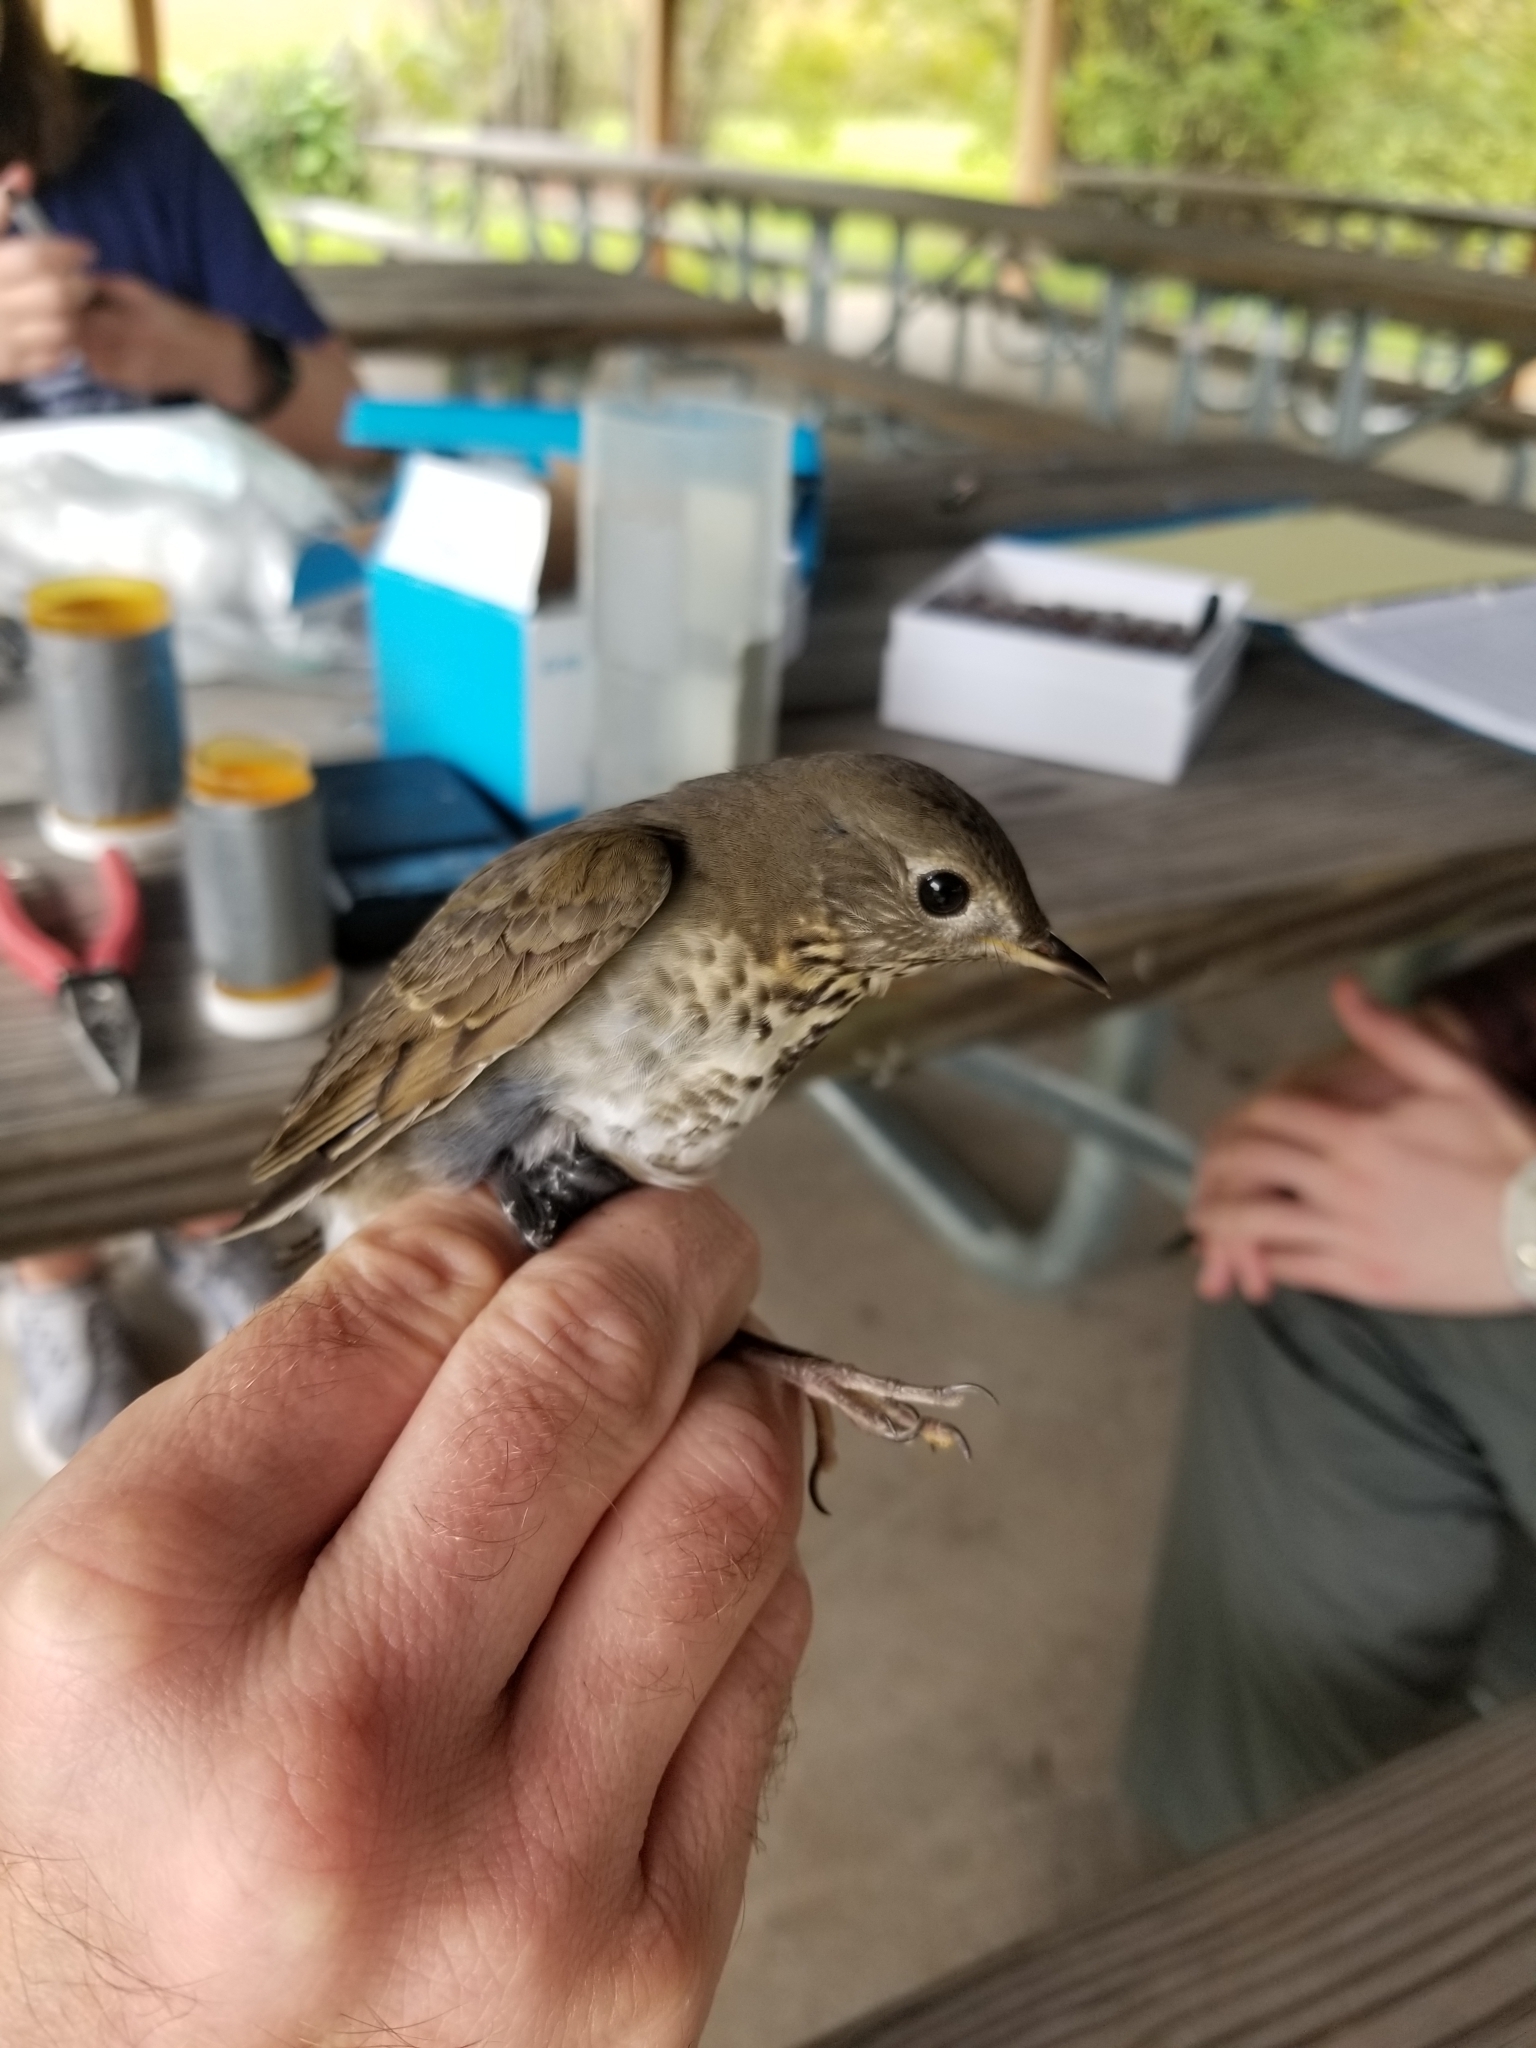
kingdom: Animalia
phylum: Chordata
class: Aves
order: Passeriformes
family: Turdidae
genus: Catharus
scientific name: Catharus minimus
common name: Grey-cheeked thrush
